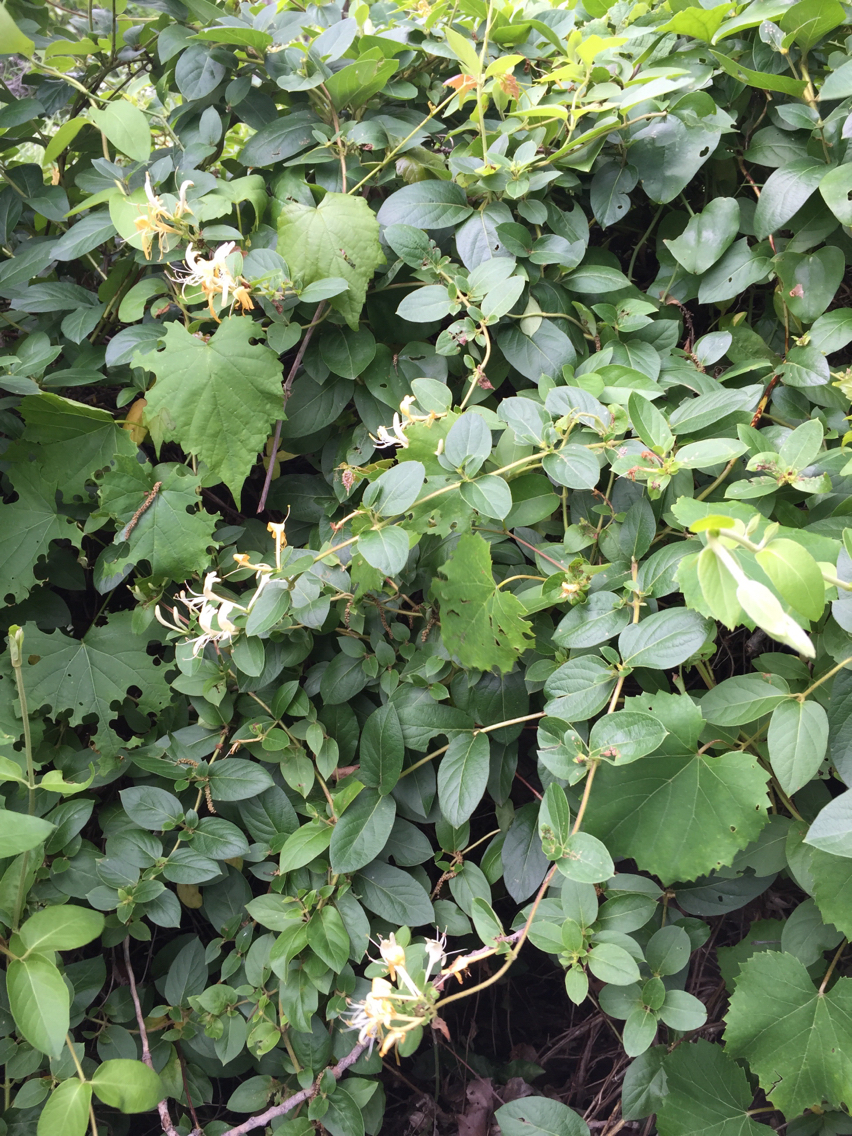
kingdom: Plantae
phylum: Tracheophyta
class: Magnoliopsida
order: Dipsacales
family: Caprifoliaceae
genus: Lonicera
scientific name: Lonicera japonica
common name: Japanese honeysuckle
